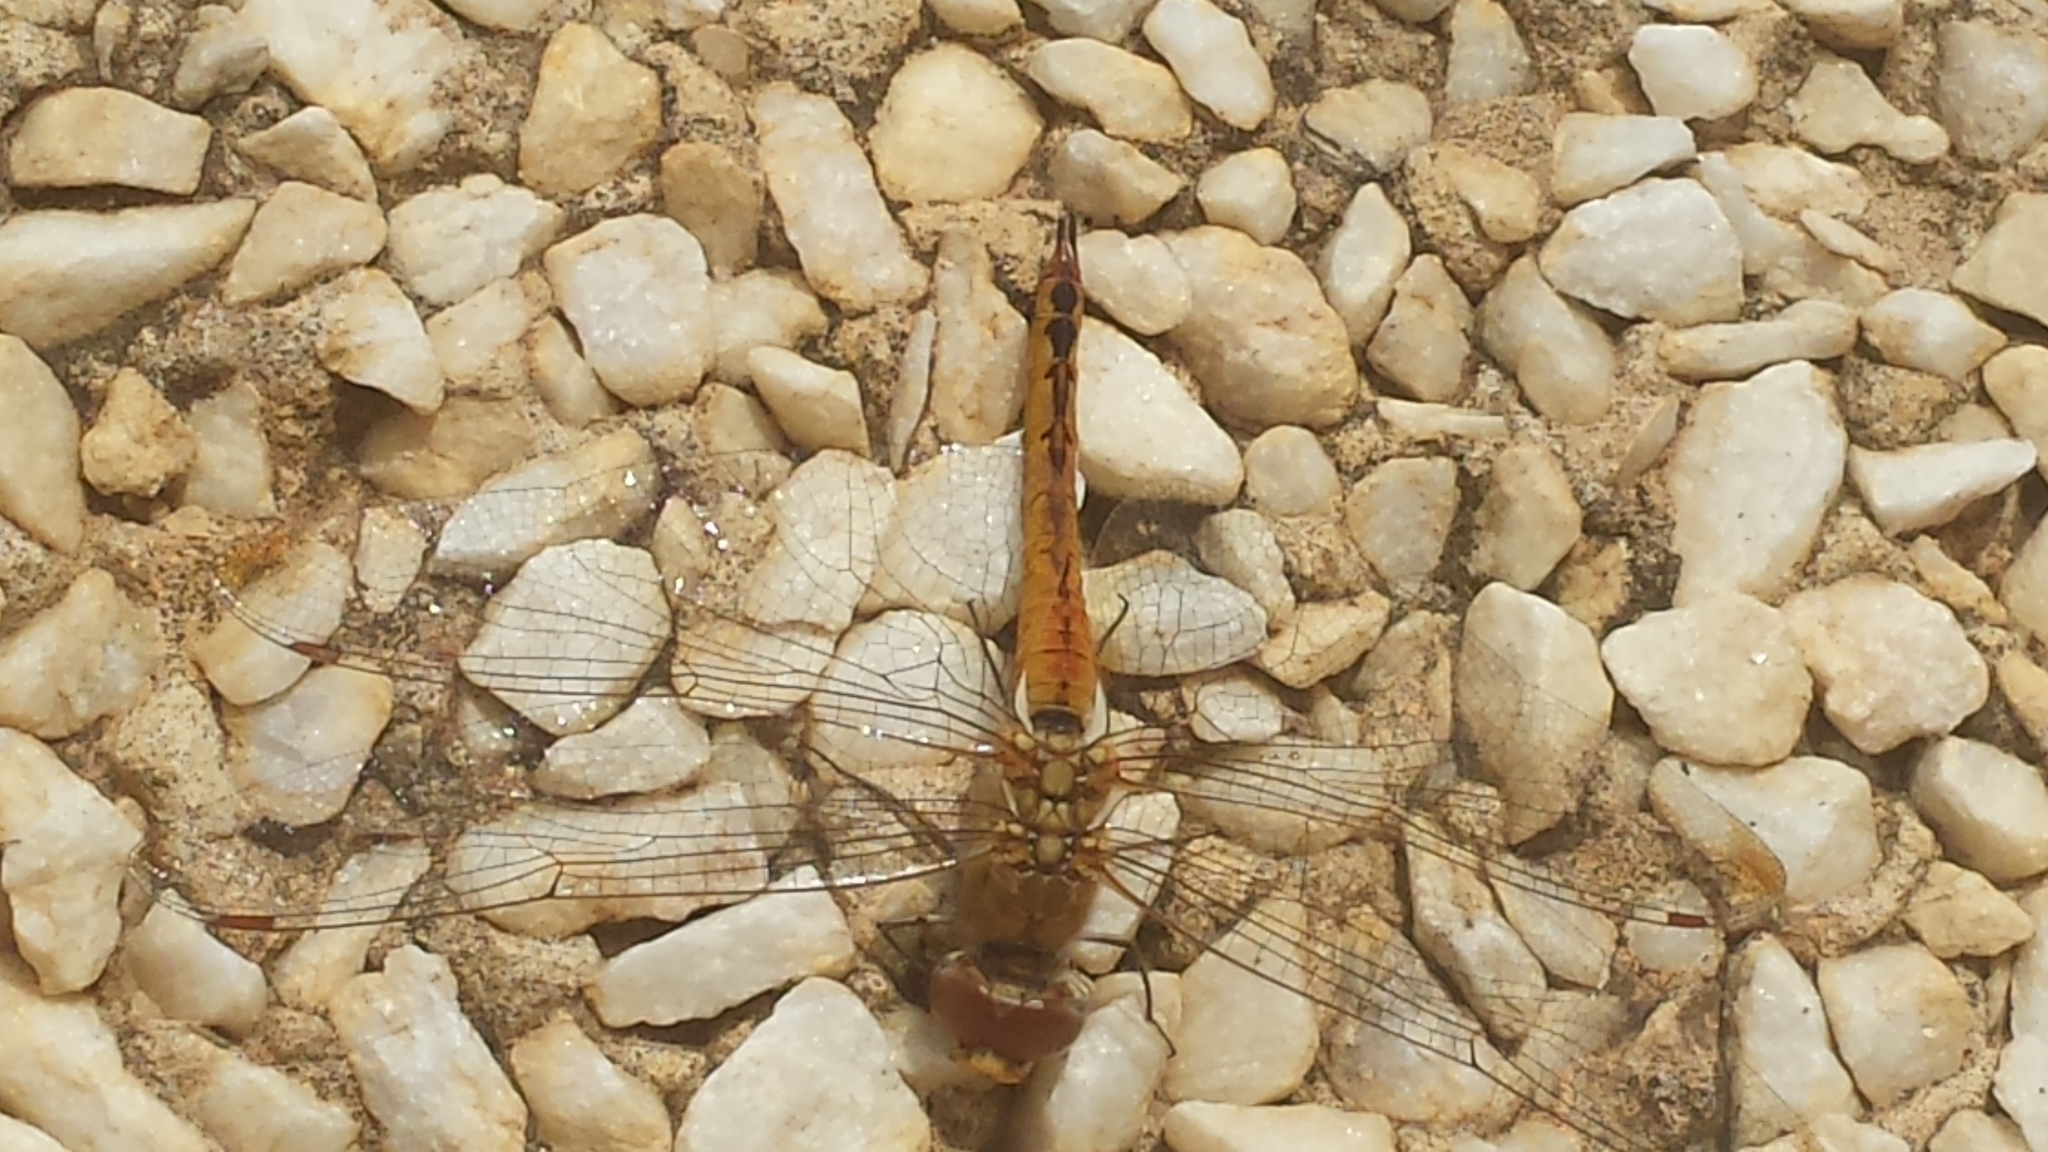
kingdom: Animalia
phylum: Arthropoda
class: Insecta
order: Odonata
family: Libellulidae
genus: Pantala
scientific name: Pantala flavescens
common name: Wandering glider
